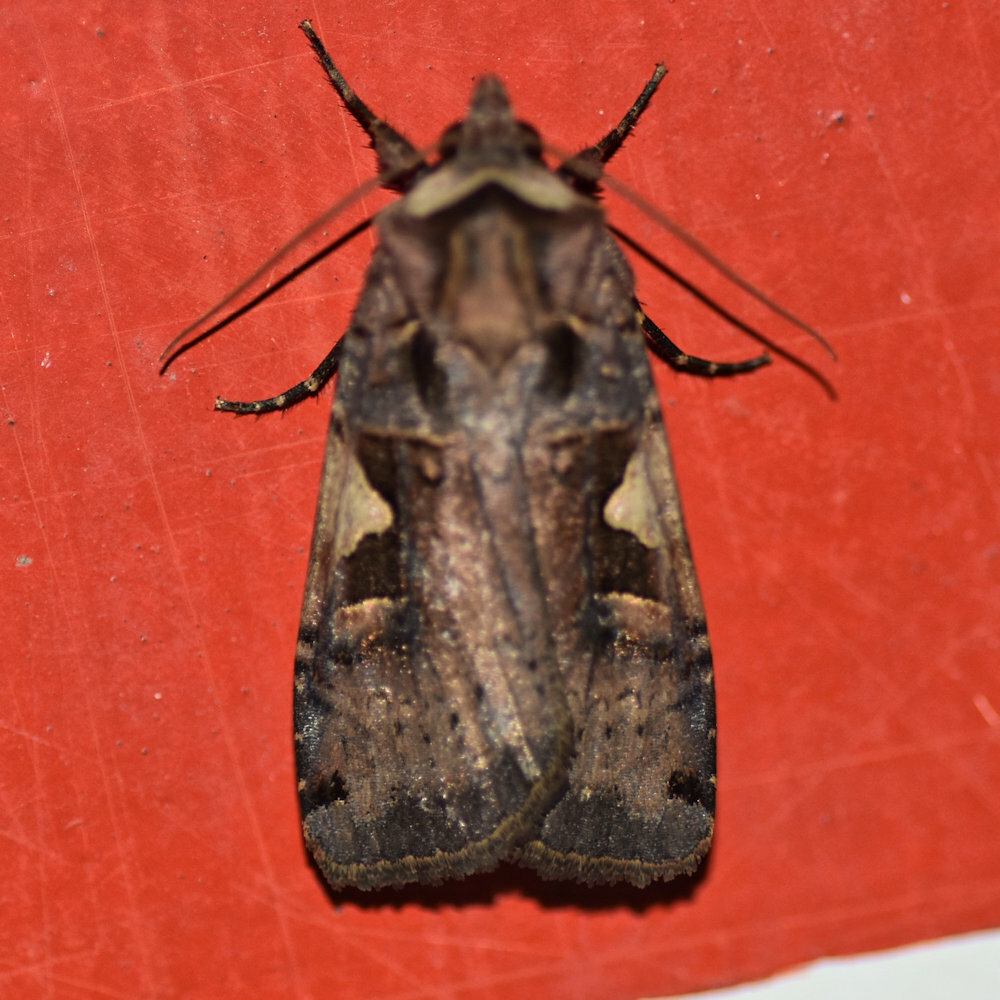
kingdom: Animalia
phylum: Arthropoda
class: Insecta
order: Lepidoptera
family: Noctuidae
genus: Xestia
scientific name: Xestia
